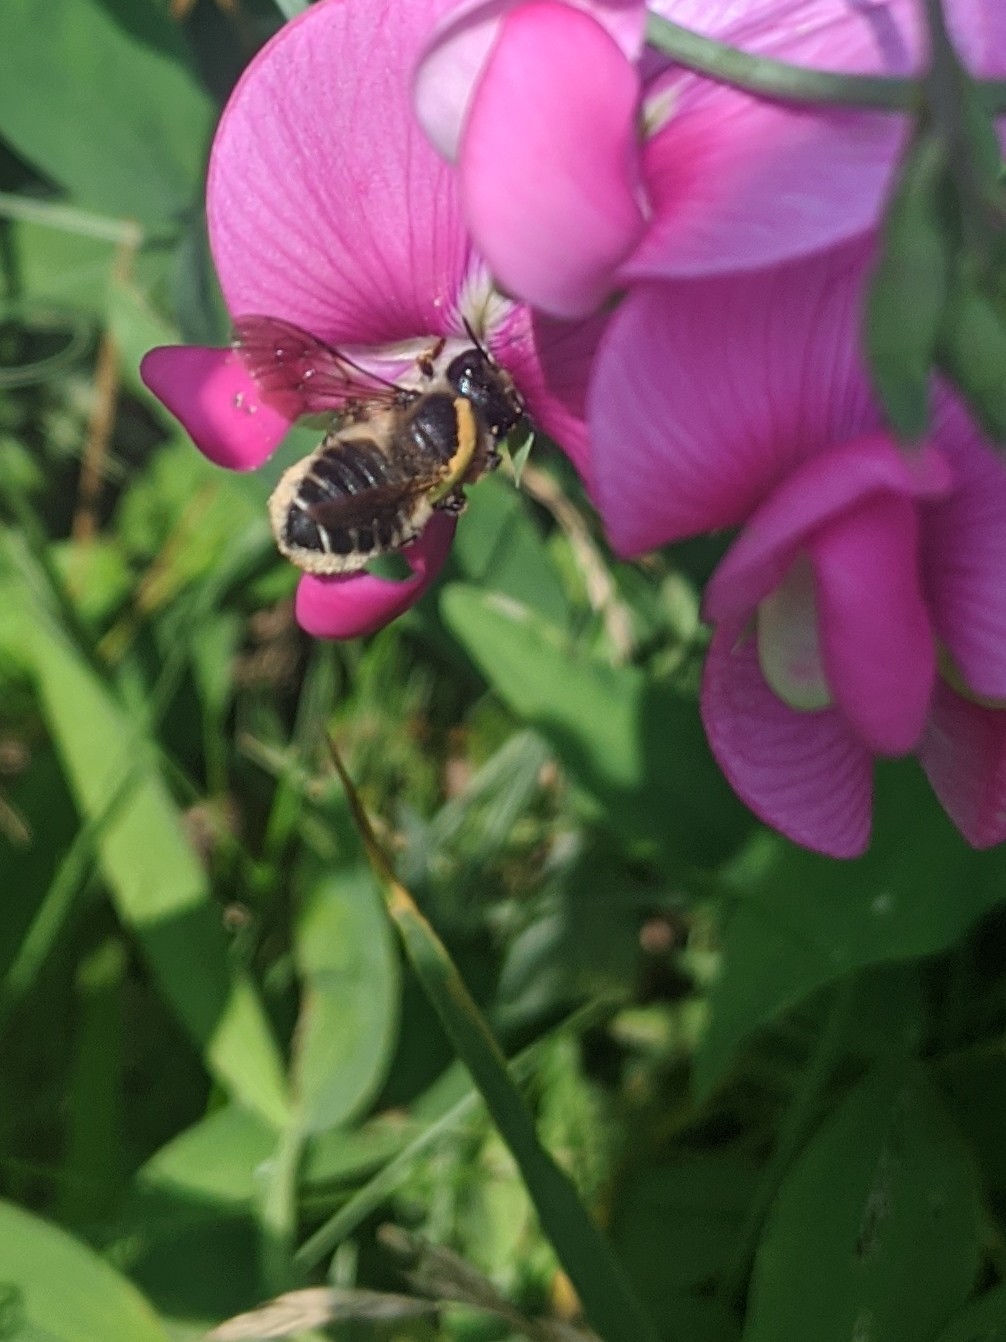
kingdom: Animalia
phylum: Arthropoda
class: Insecta
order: Hymenoptera
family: Megachilidae
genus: Megachile
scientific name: Megachile
